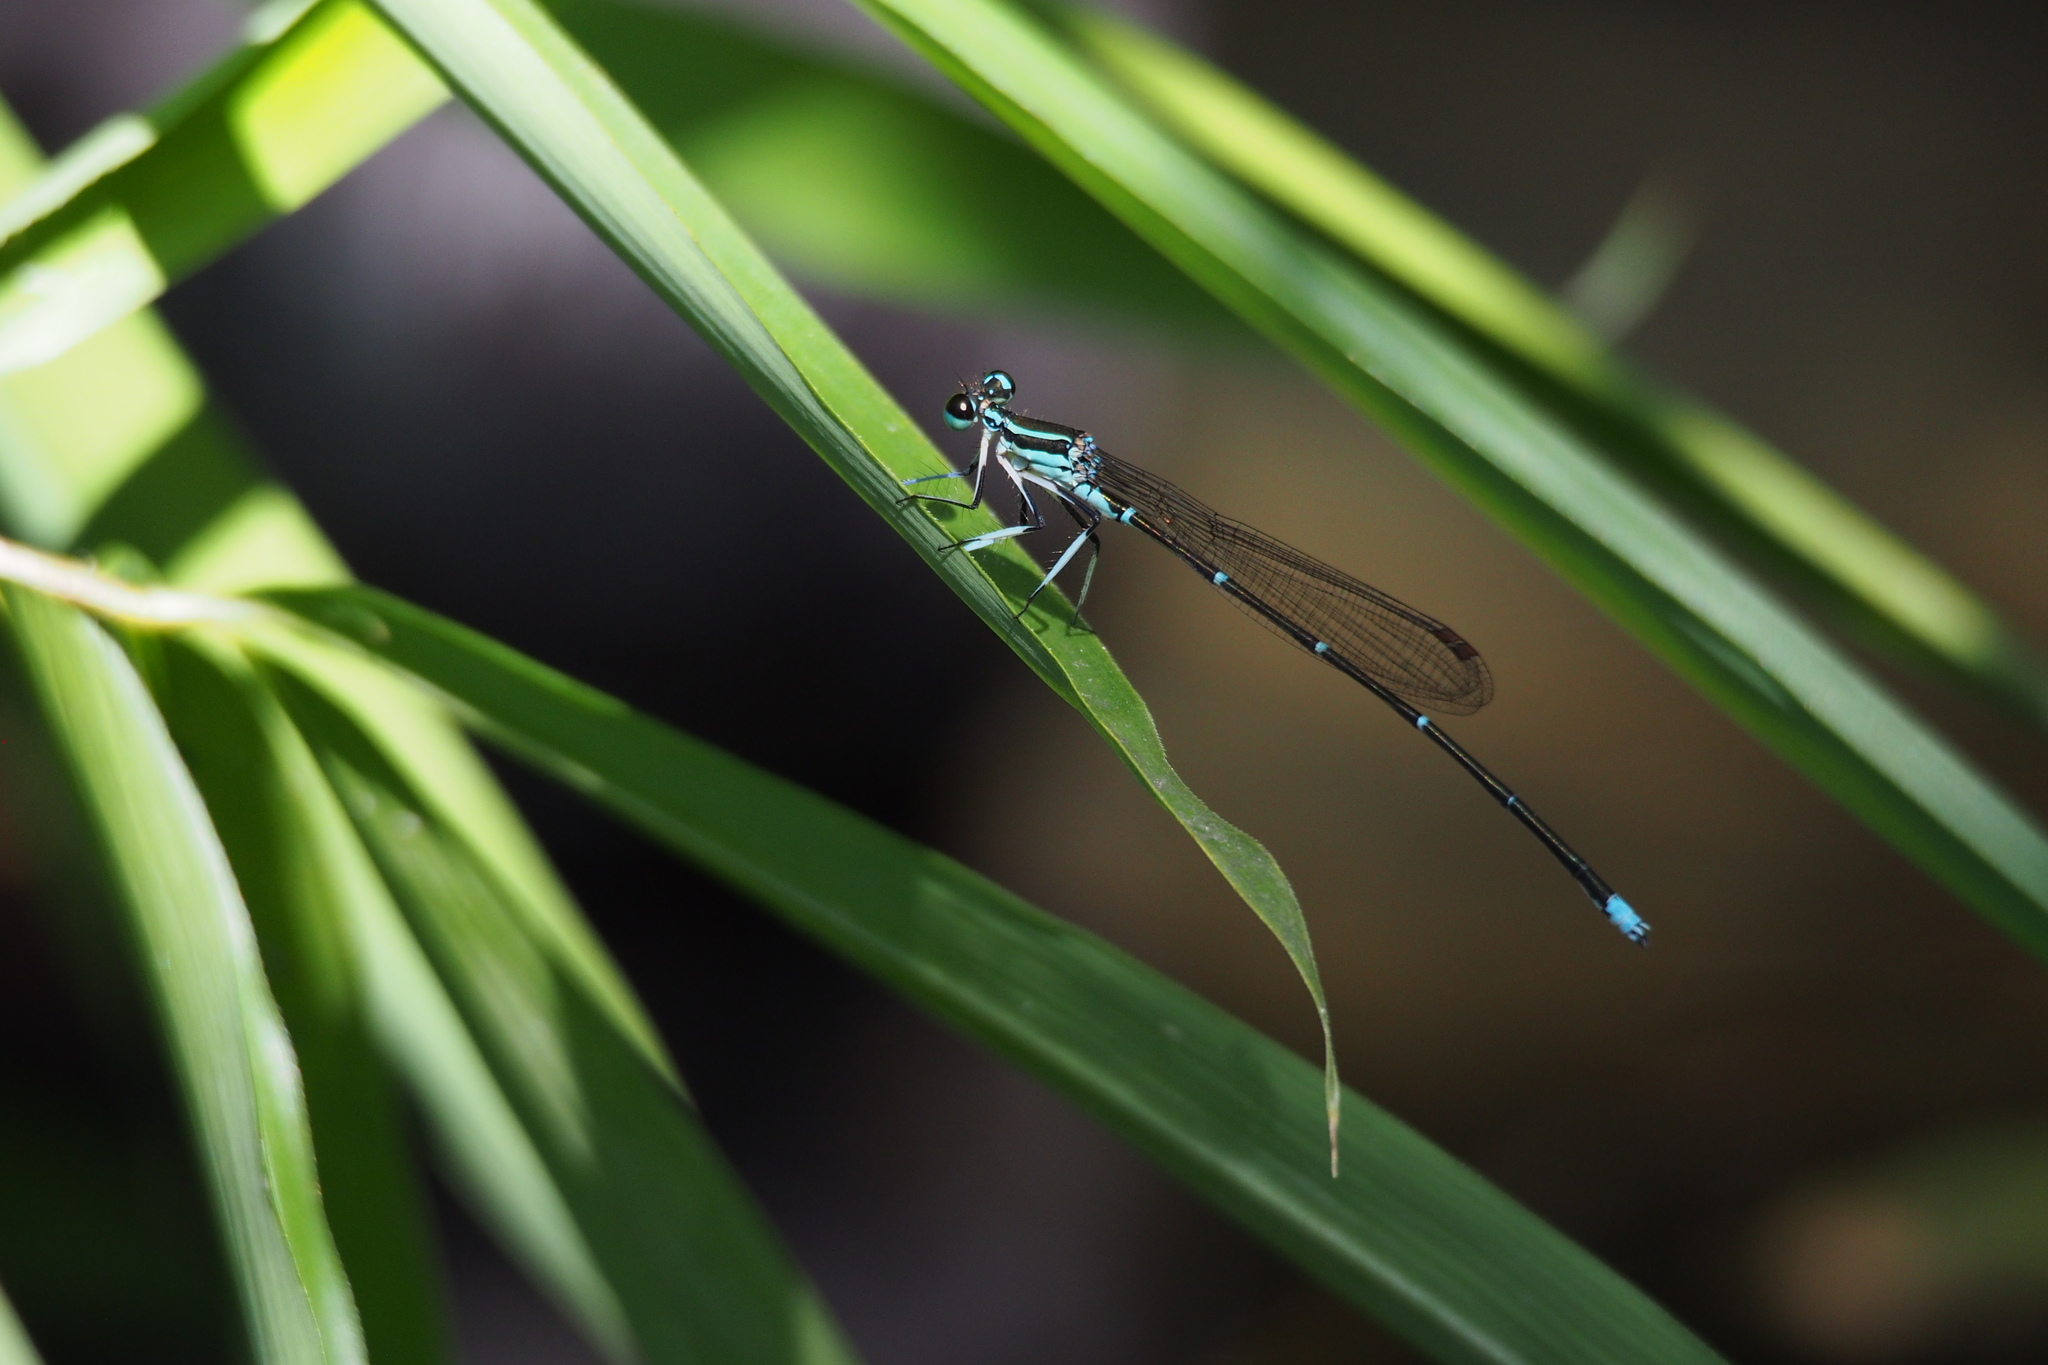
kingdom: Animalia
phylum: Arthropoda
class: Insecta
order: Odonata
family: Platycnemididae
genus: Pseudocopera
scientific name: Pseudocopera annulata
